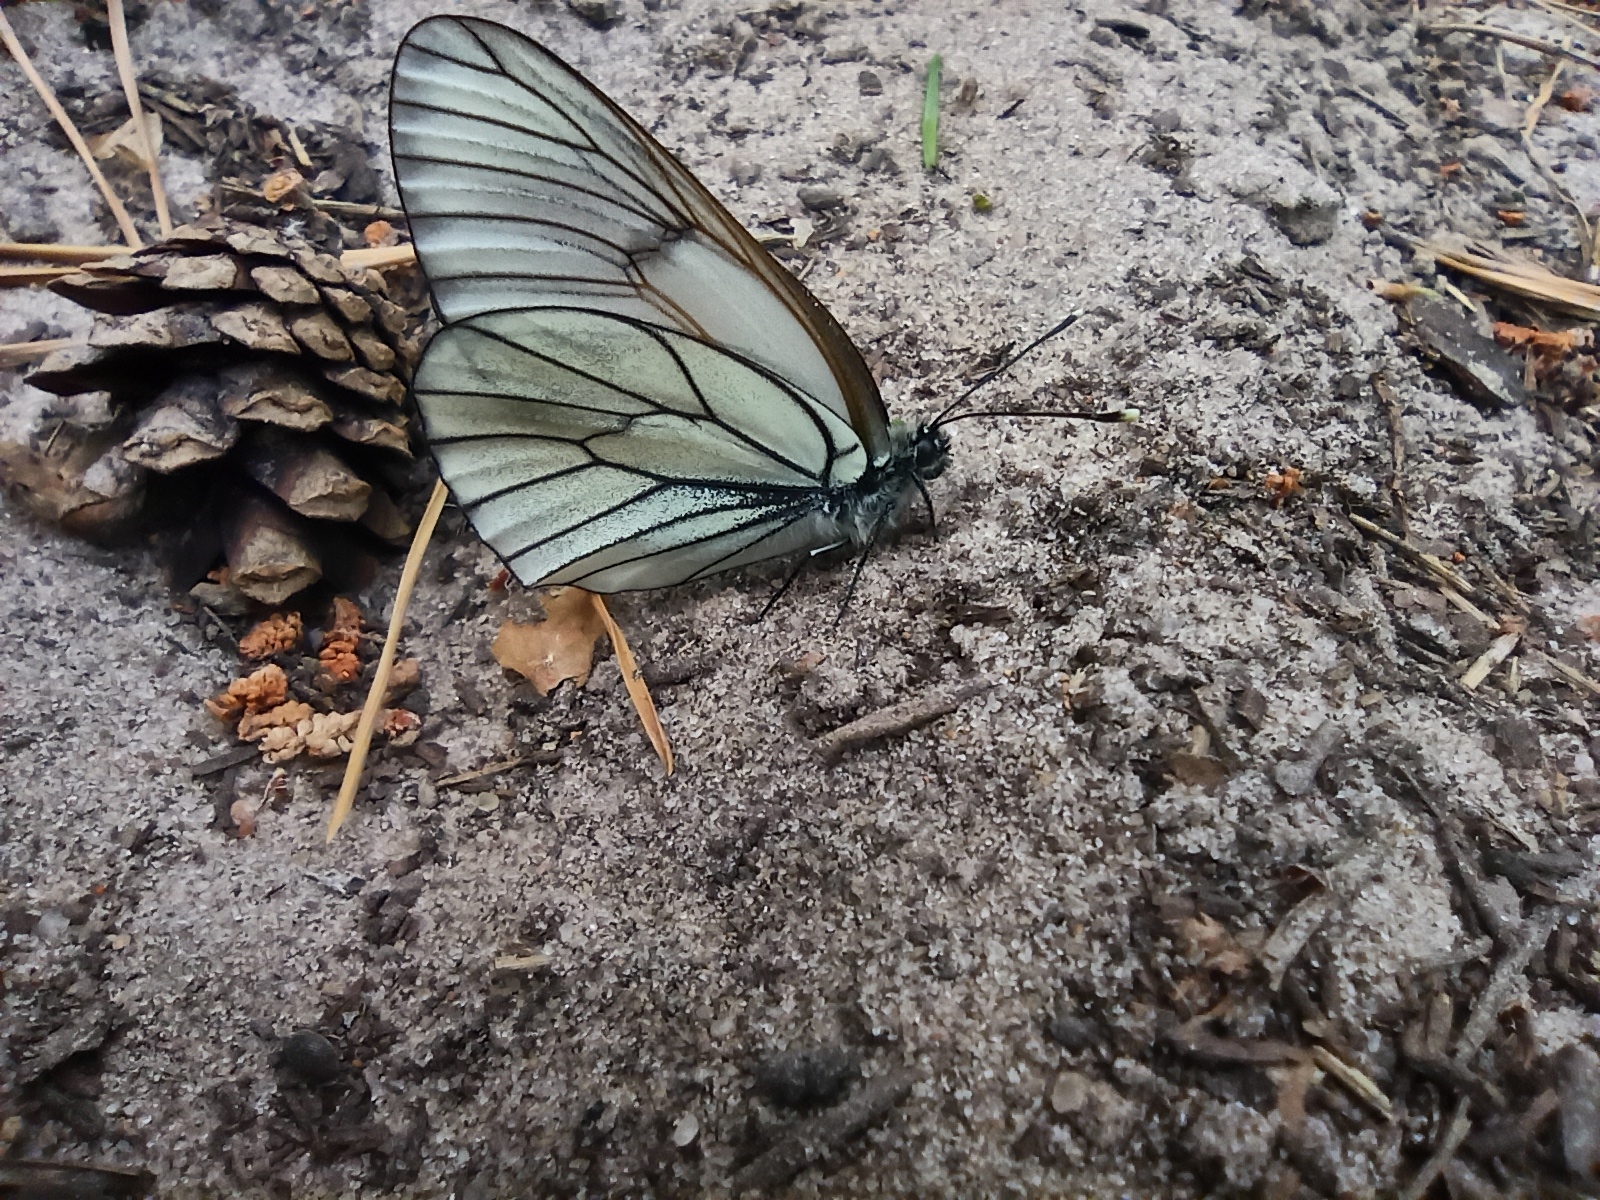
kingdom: Animalia
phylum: Arthropoda
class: Insecta
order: Lepidoptera
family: Pieridae
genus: Aporia
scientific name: Aporia crataegi
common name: Black-veined white
